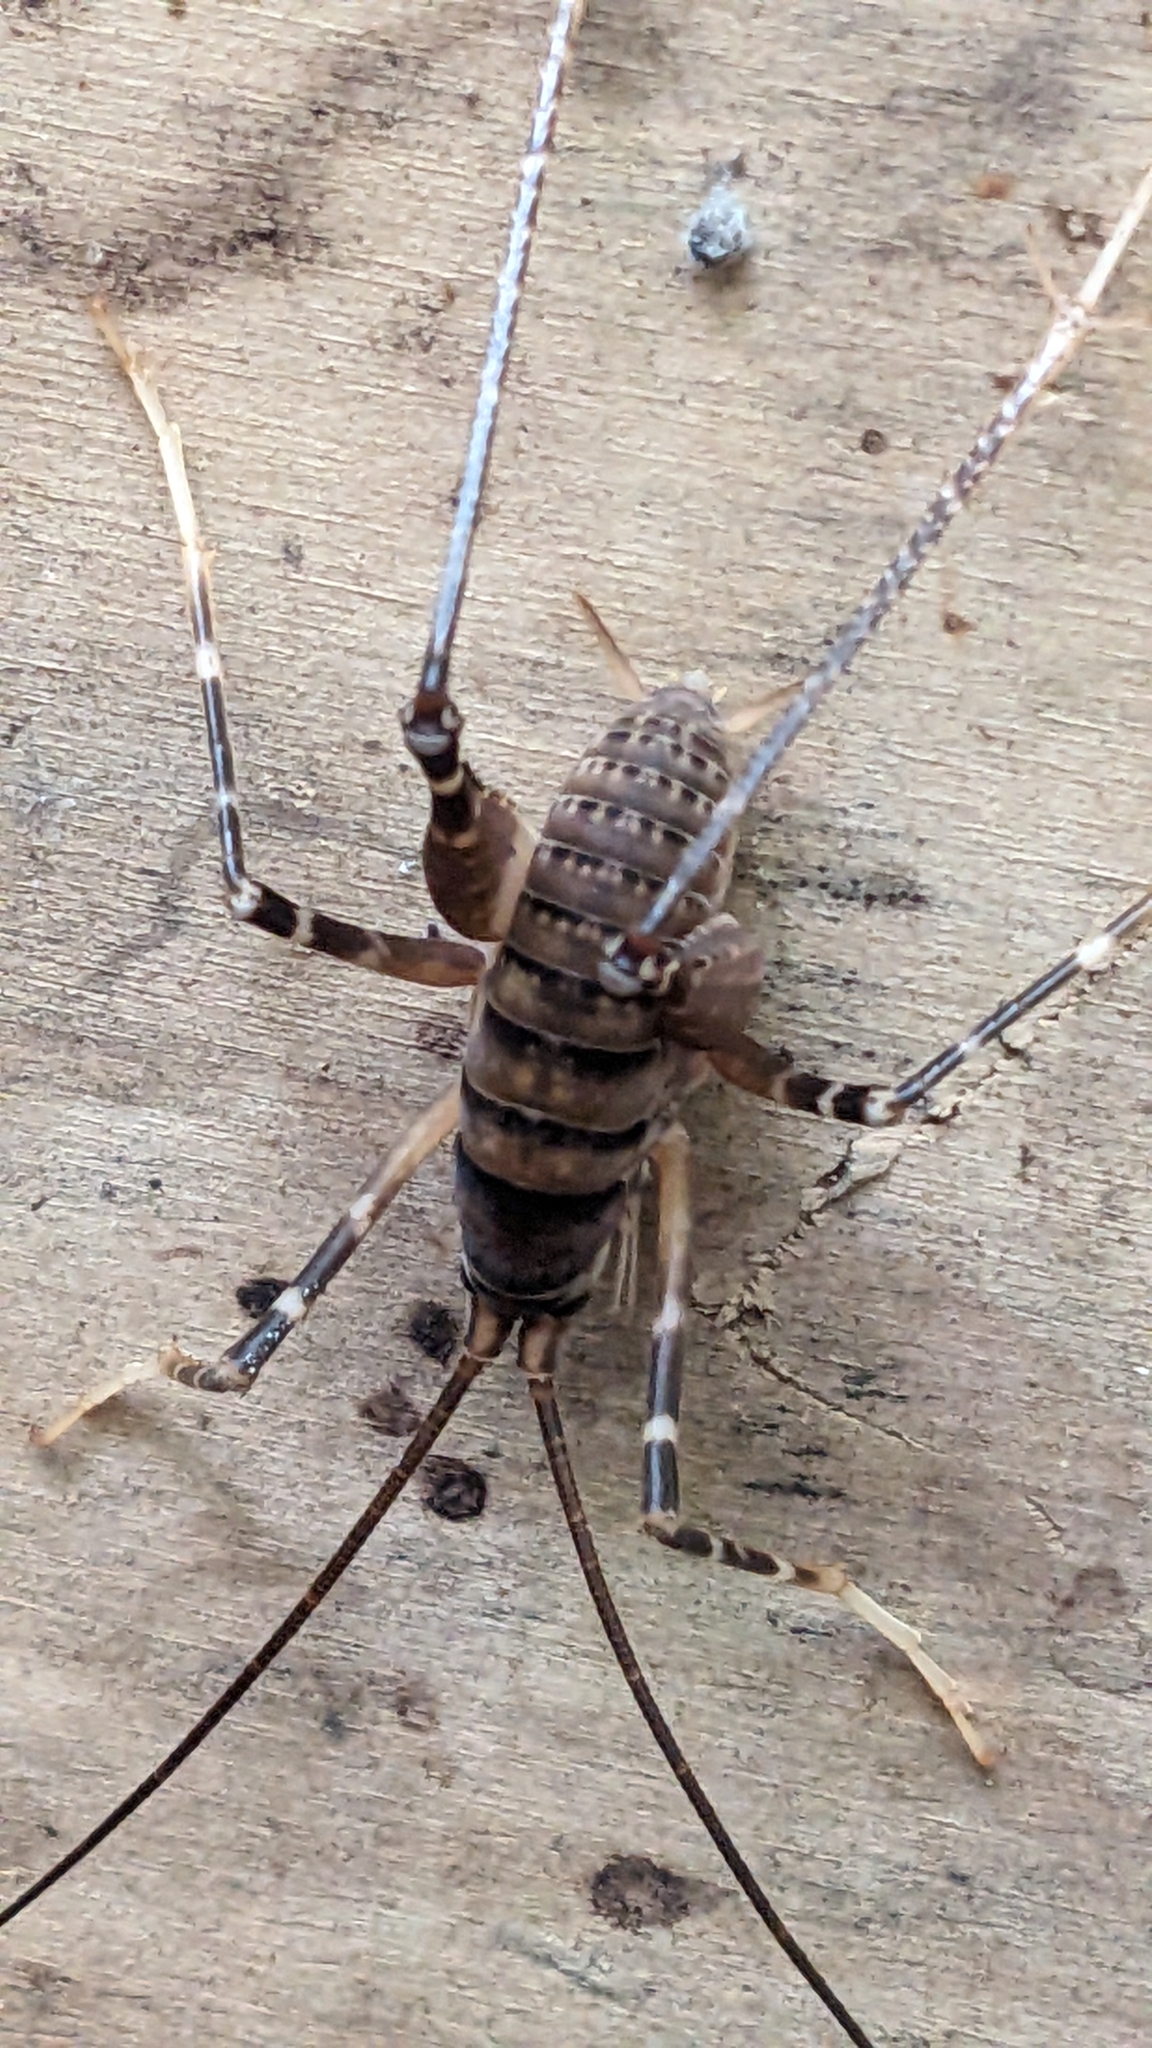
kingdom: Animalia
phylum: Arthropoda
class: Insecta
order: Orthoptera
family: Rhaphidophoridae
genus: Pachyrhamma
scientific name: Pachyrhamma edwardsii
